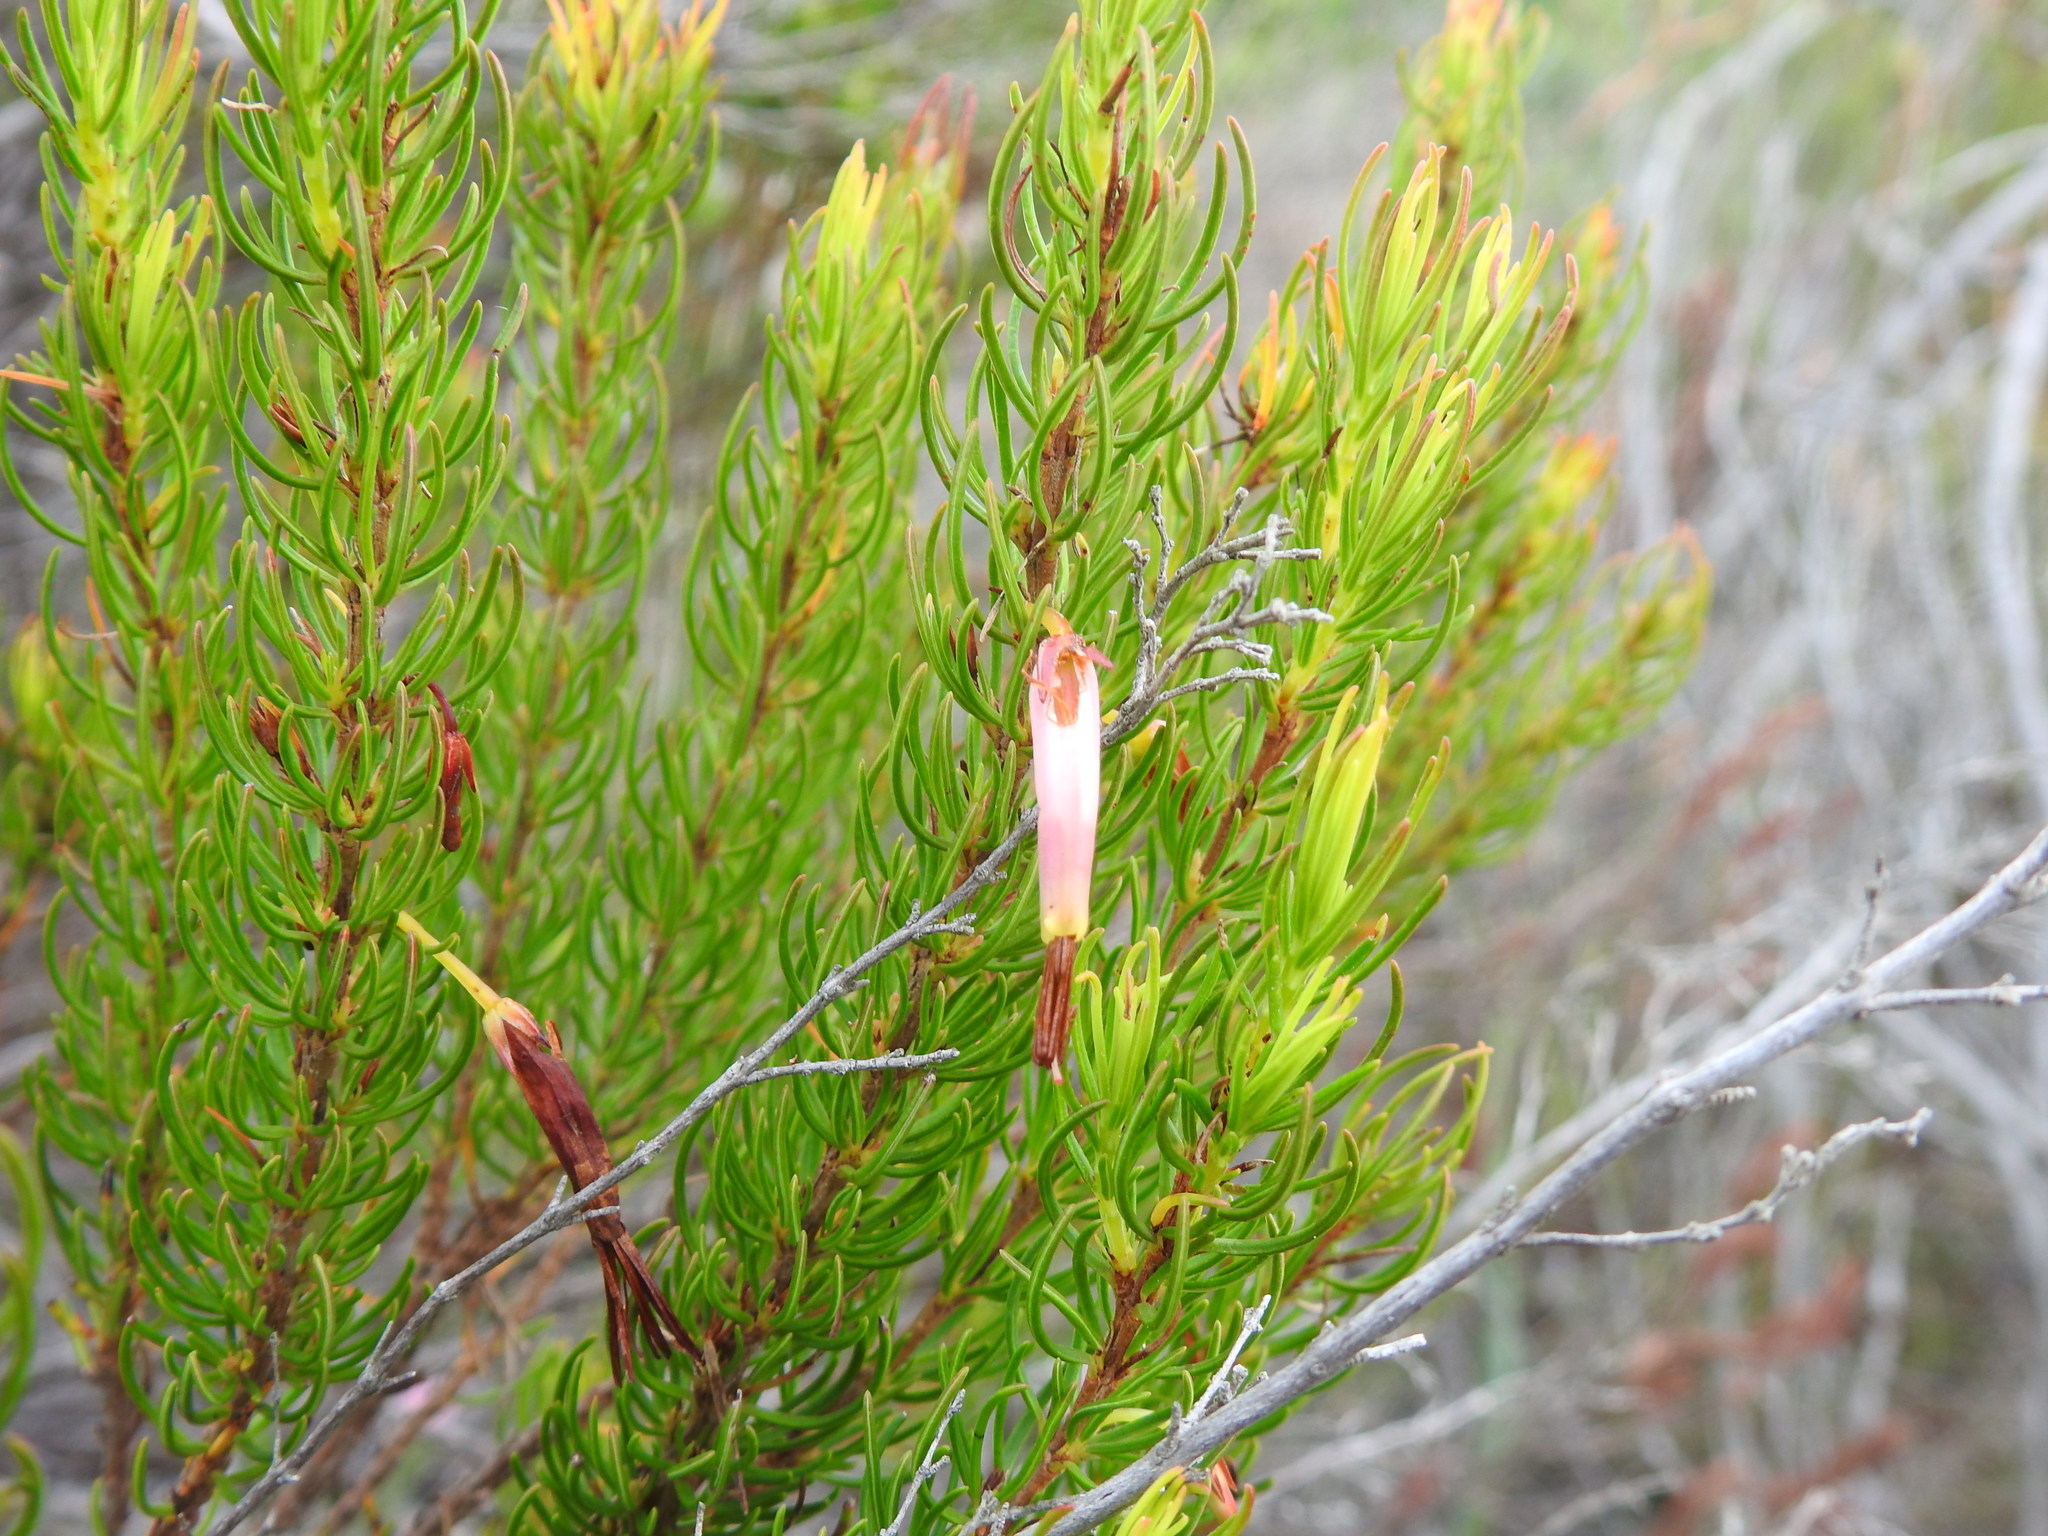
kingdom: Plantae
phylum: Tracheophyta
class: Magnoliopsida
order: Ericales
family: Ericaceae
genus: Erica
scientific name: Erica plukenetii
